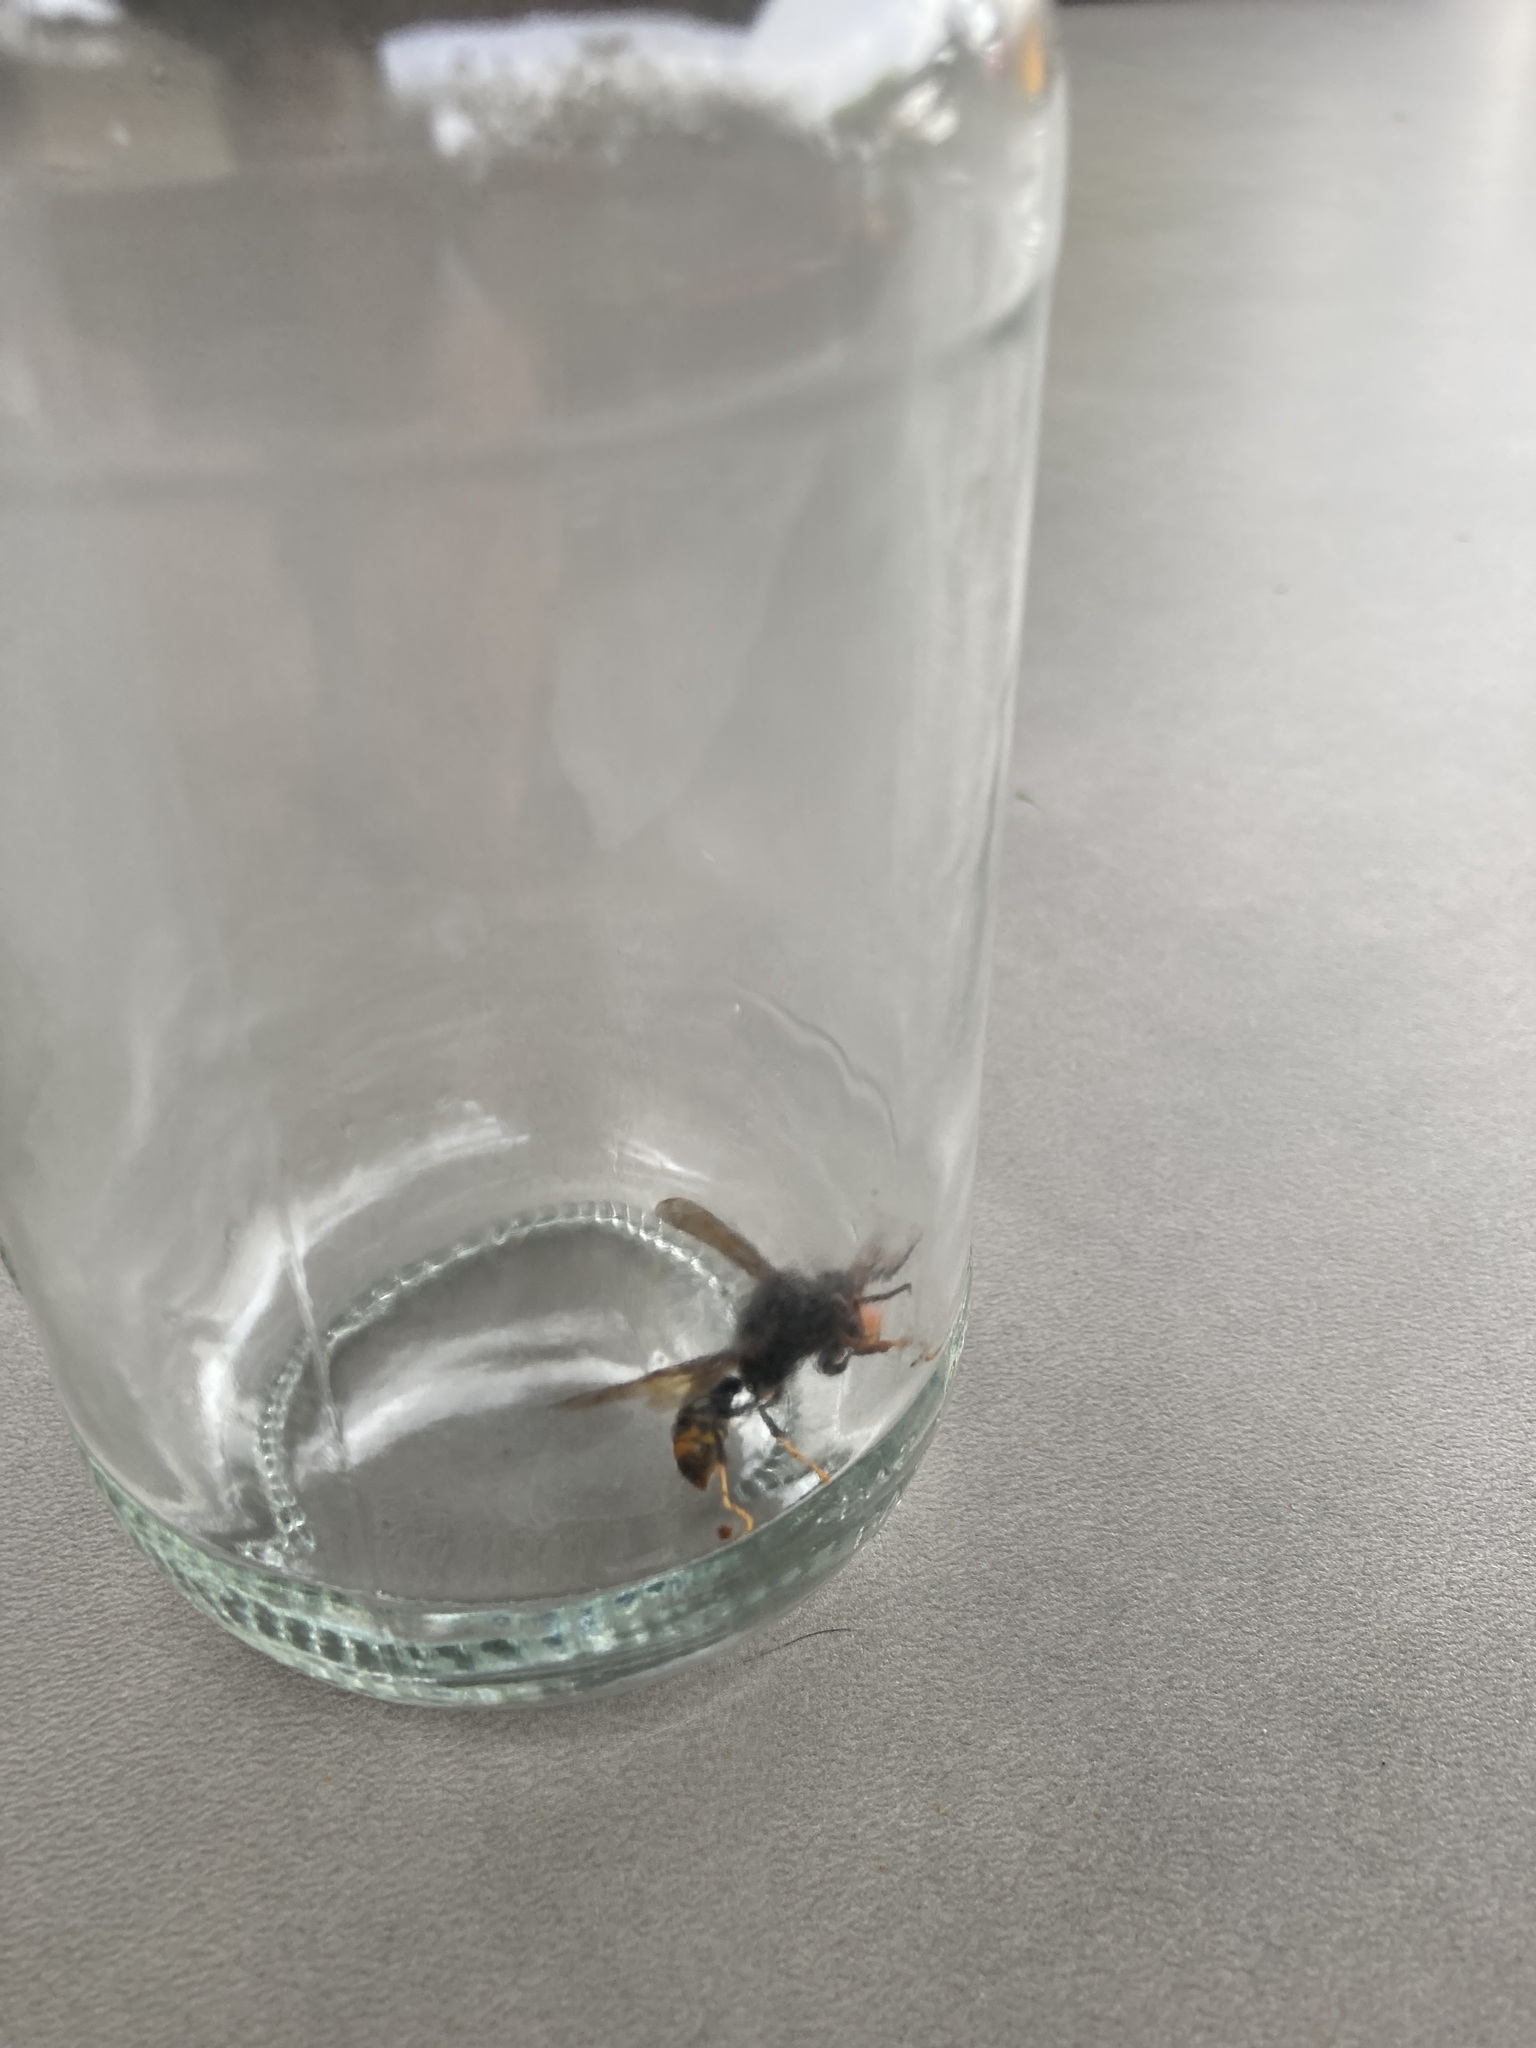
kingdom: Animalia
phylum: Arthropoda
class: Insecta
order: Hymenoptera
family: Vespidae
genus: Vespa
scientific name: Vespa velutina
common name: Asian hornet
